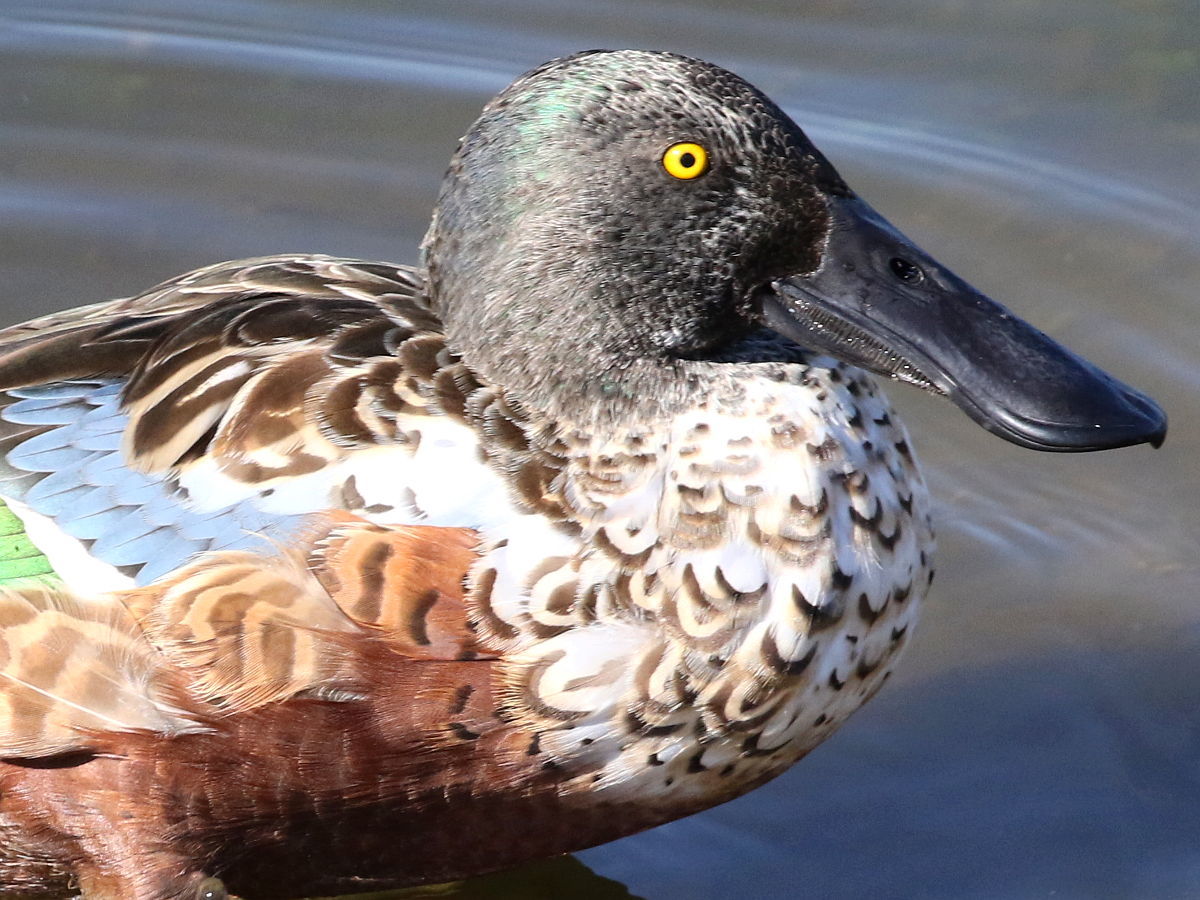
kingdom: Animalia
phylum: Chordata
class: Aves
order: Anseriformes
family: Anatidae
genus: Spatula
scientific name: Spatula clypeata
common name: Northern shoveler
